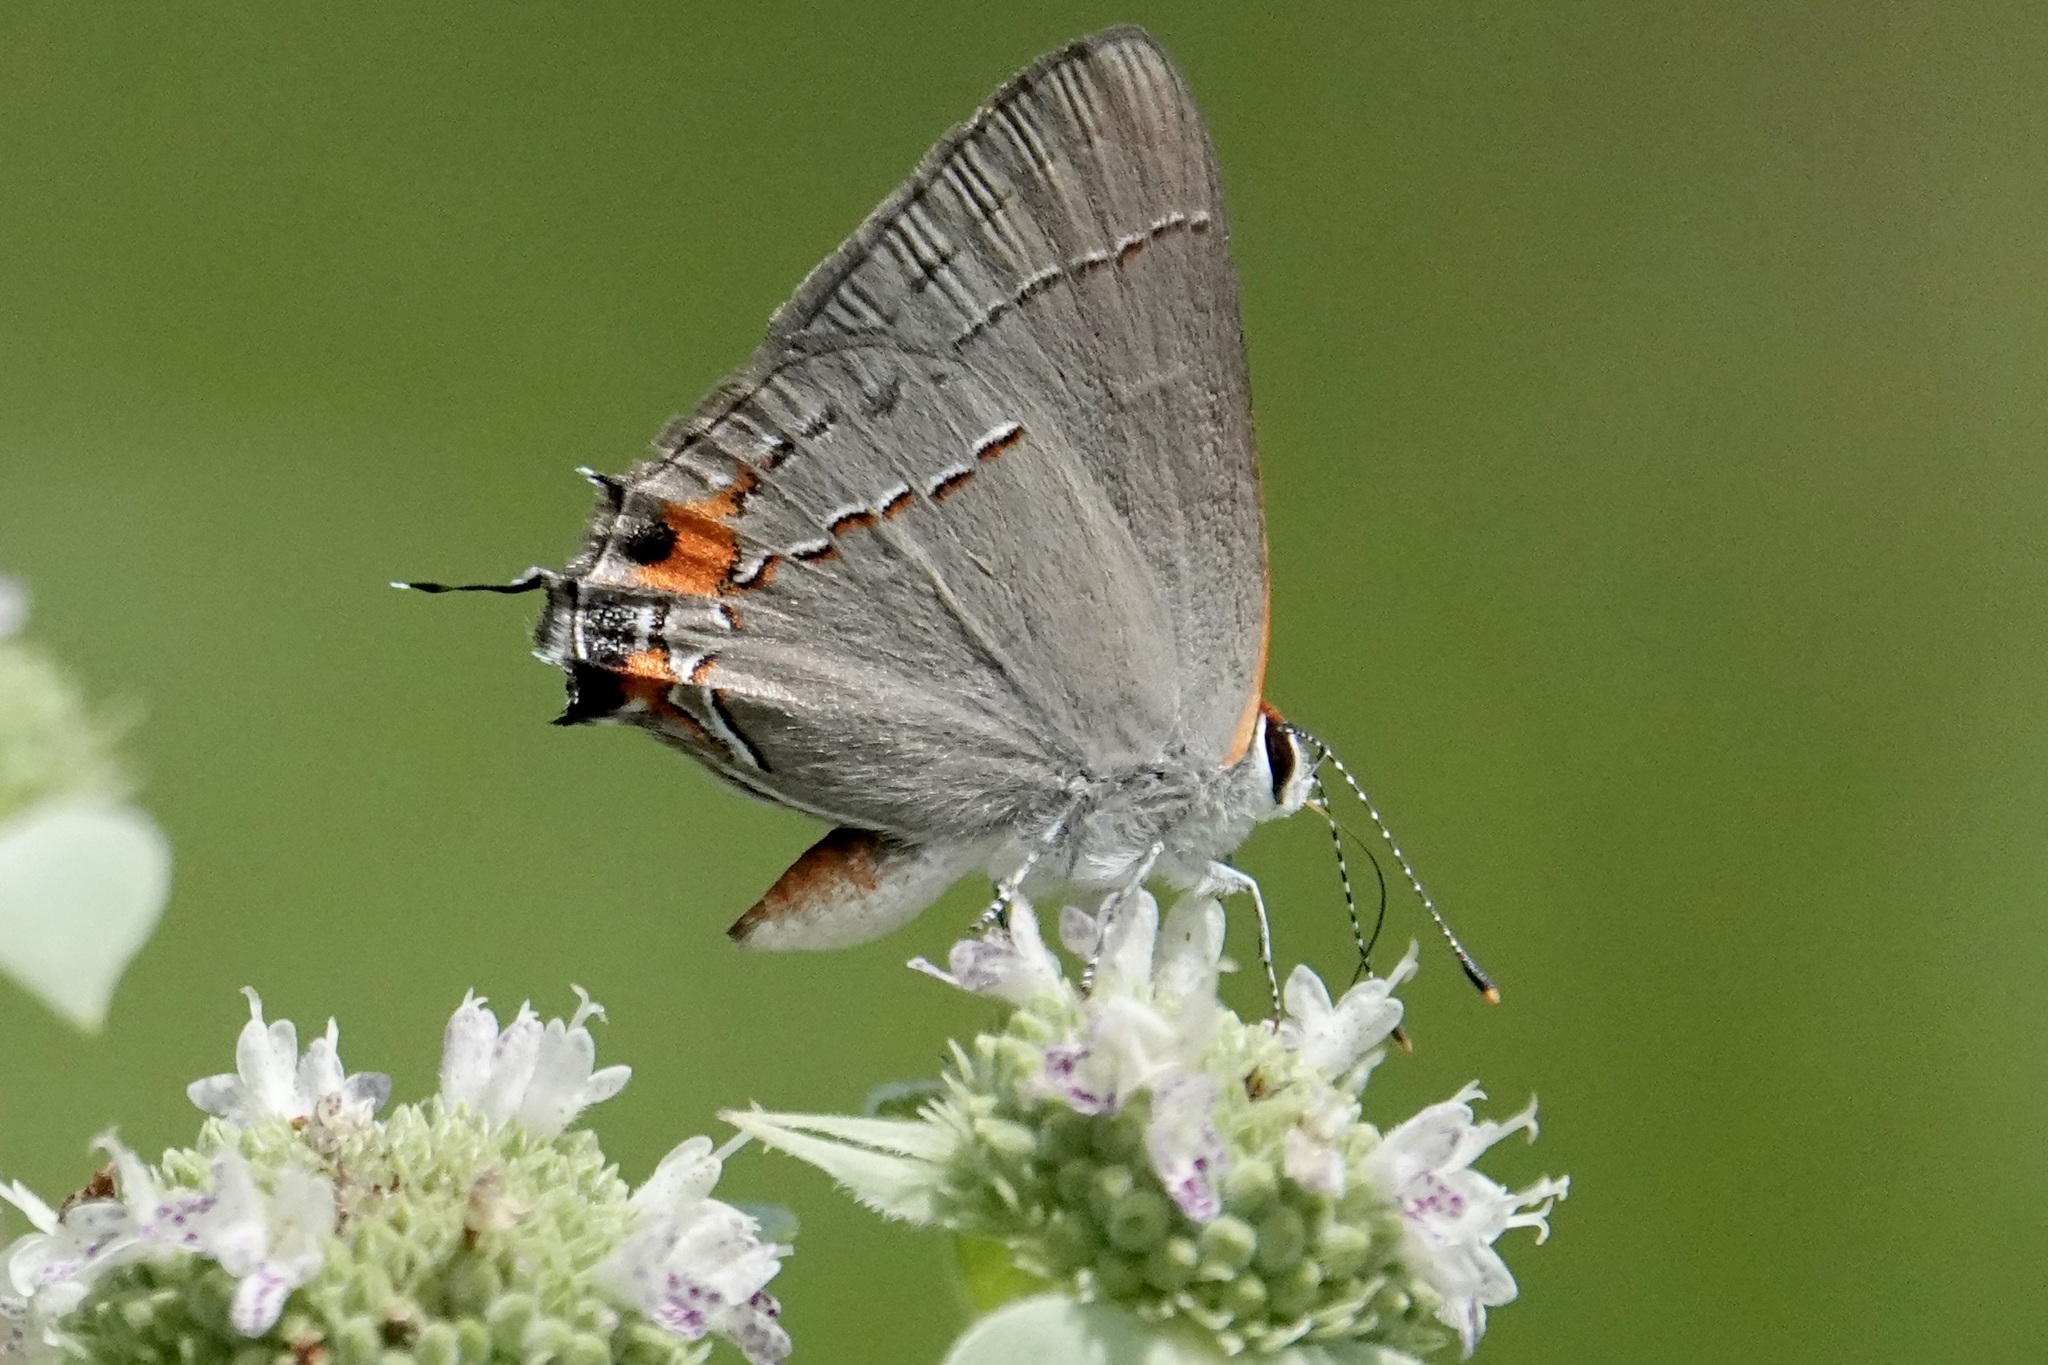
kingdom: Animalia
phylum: Arthropoda
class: Insecta
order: Lepidoptera
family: Lycaenidae
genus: Strymon
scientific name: Strymon melinus
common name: Gray hairstreak
